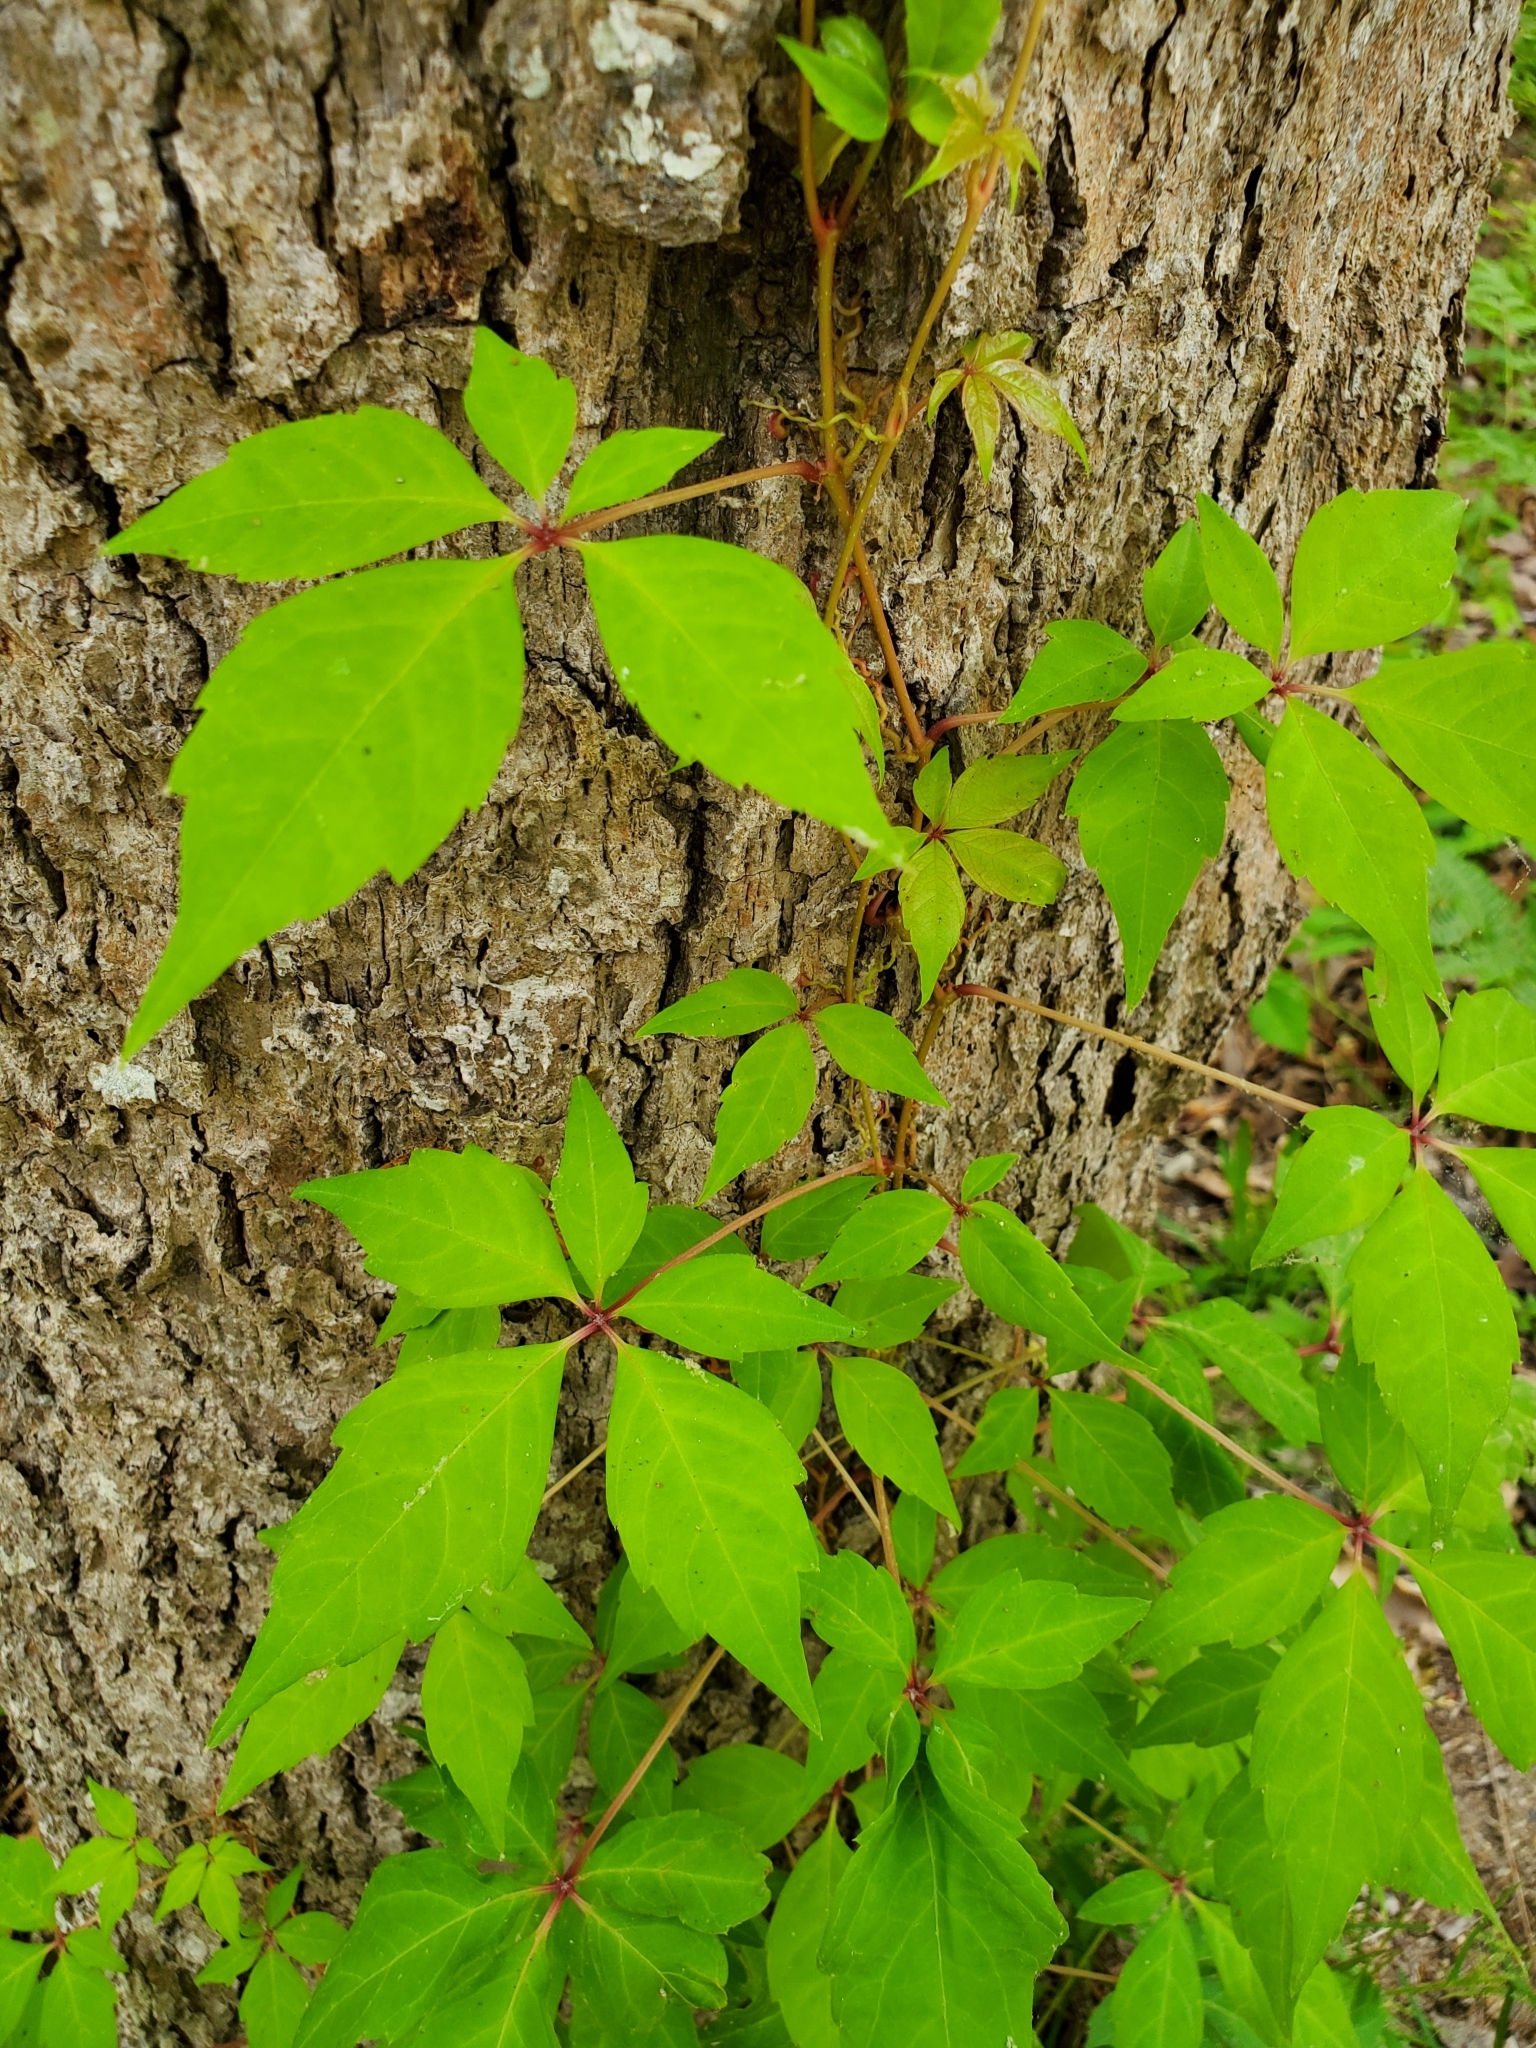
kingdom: Plantae
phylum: Tracheophyta
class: Magnoliopsida
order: Vitales
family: Vitaceae
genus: Parthenocissus
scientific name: Parthenocissus quinquefolia
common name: Virginia-creeper
